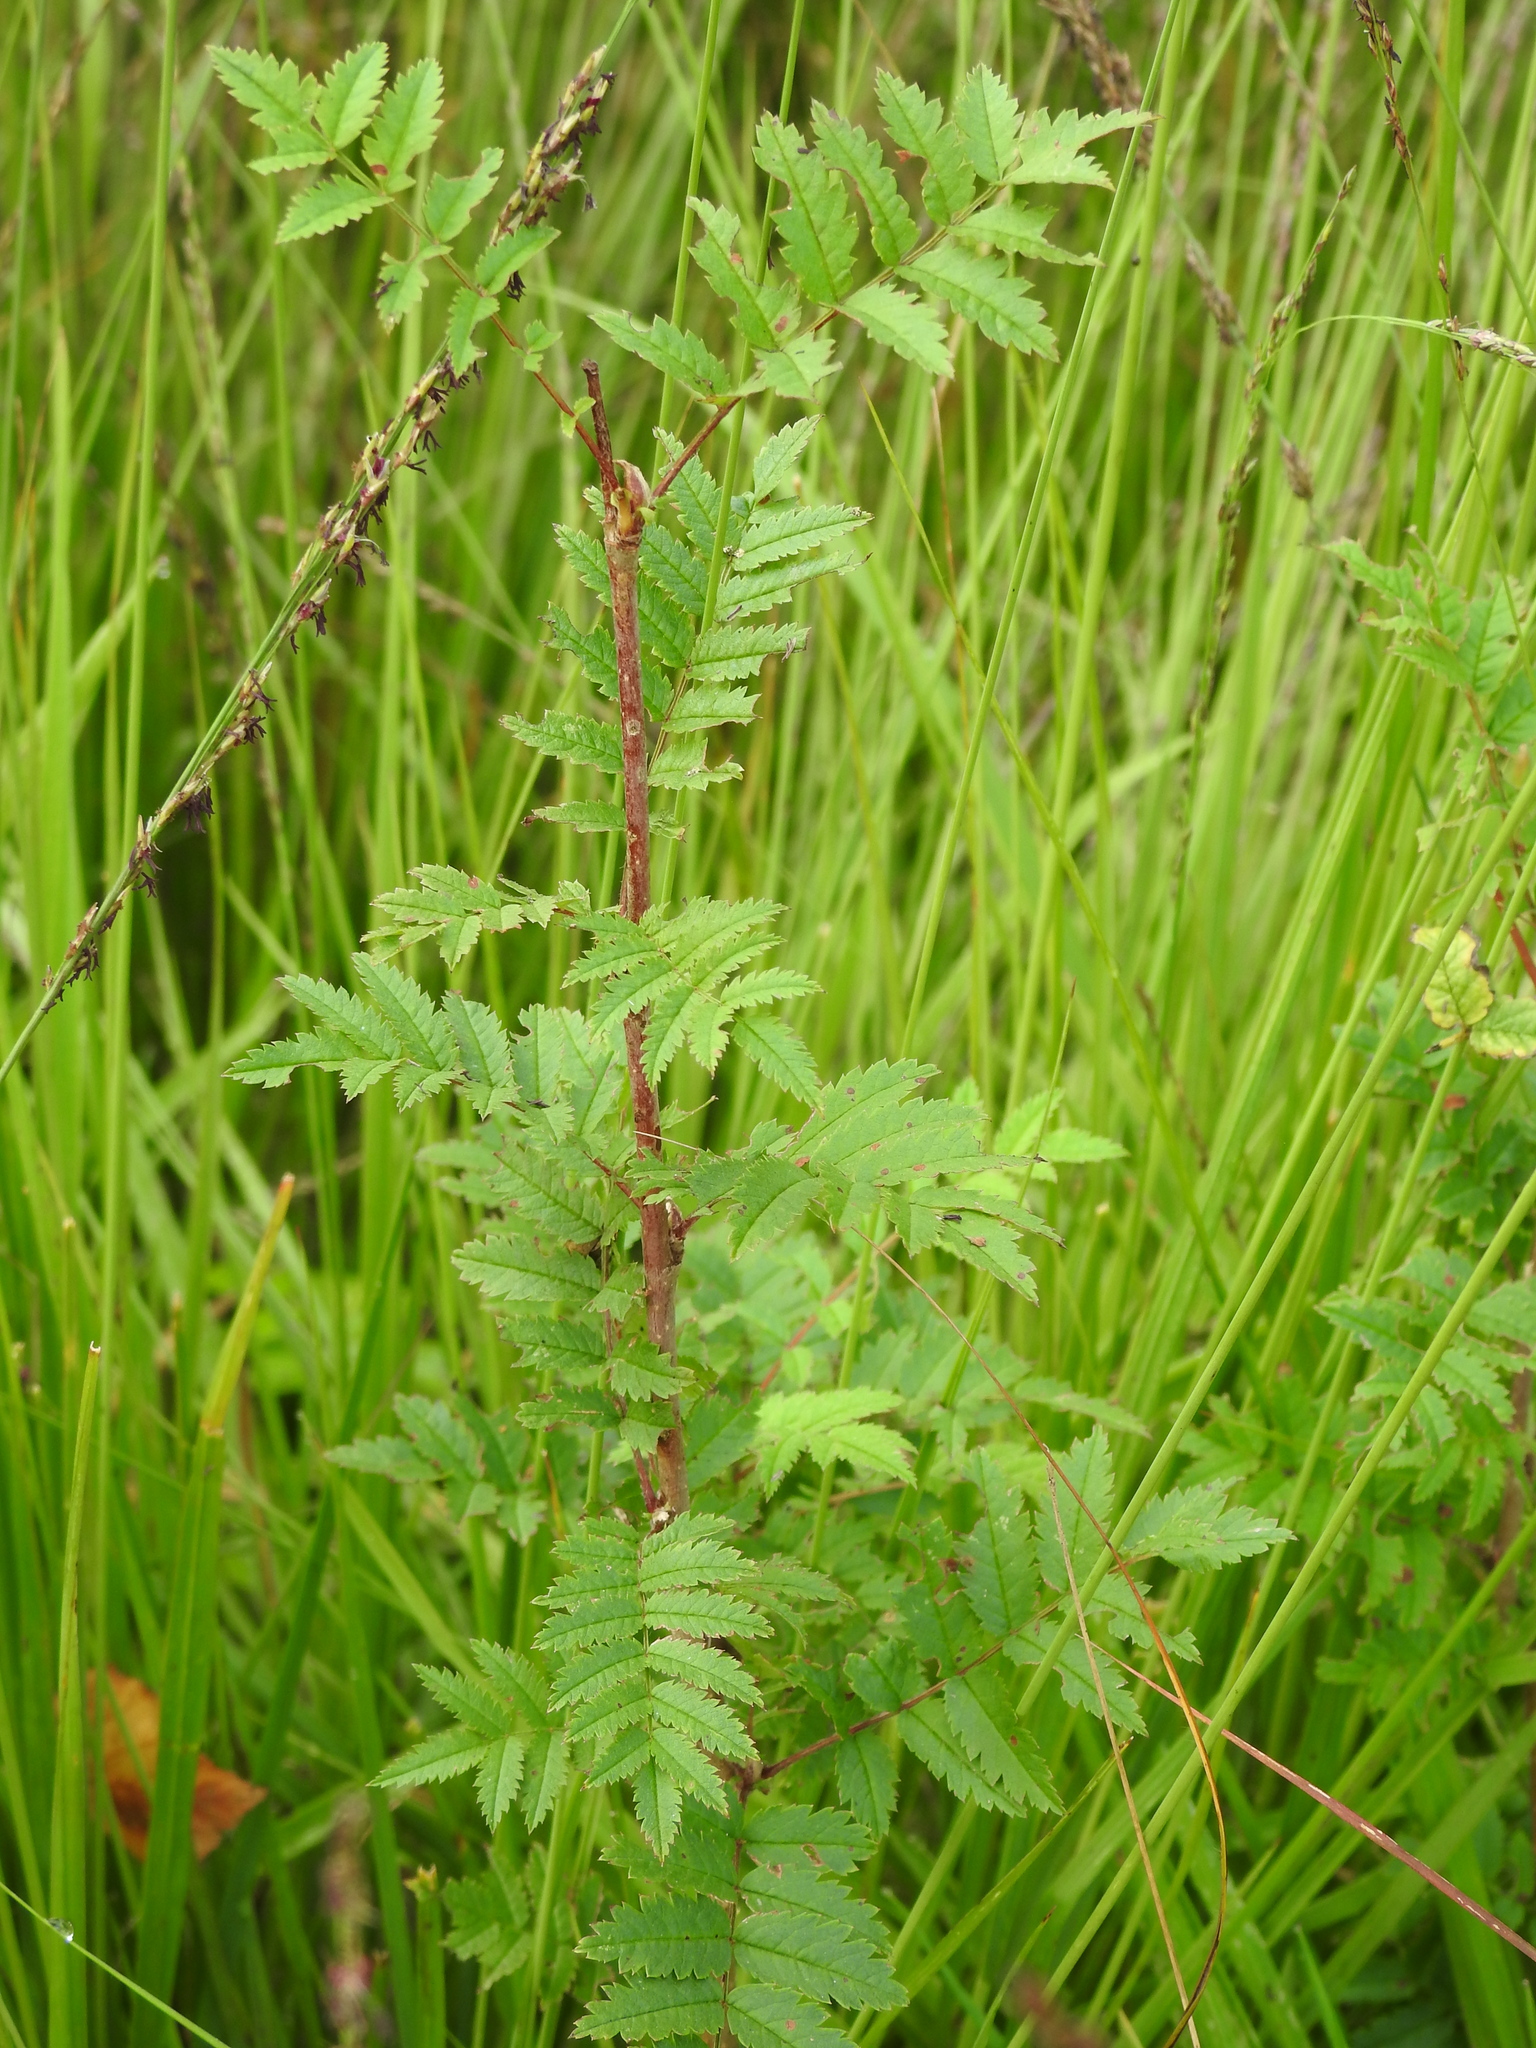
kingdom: Plantae
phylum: Tracheophyta
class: Magnoliopsida
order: Rosales
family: Rosaceae
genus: Sorbus
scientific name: Sorbus aucuparia
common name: Rowan
